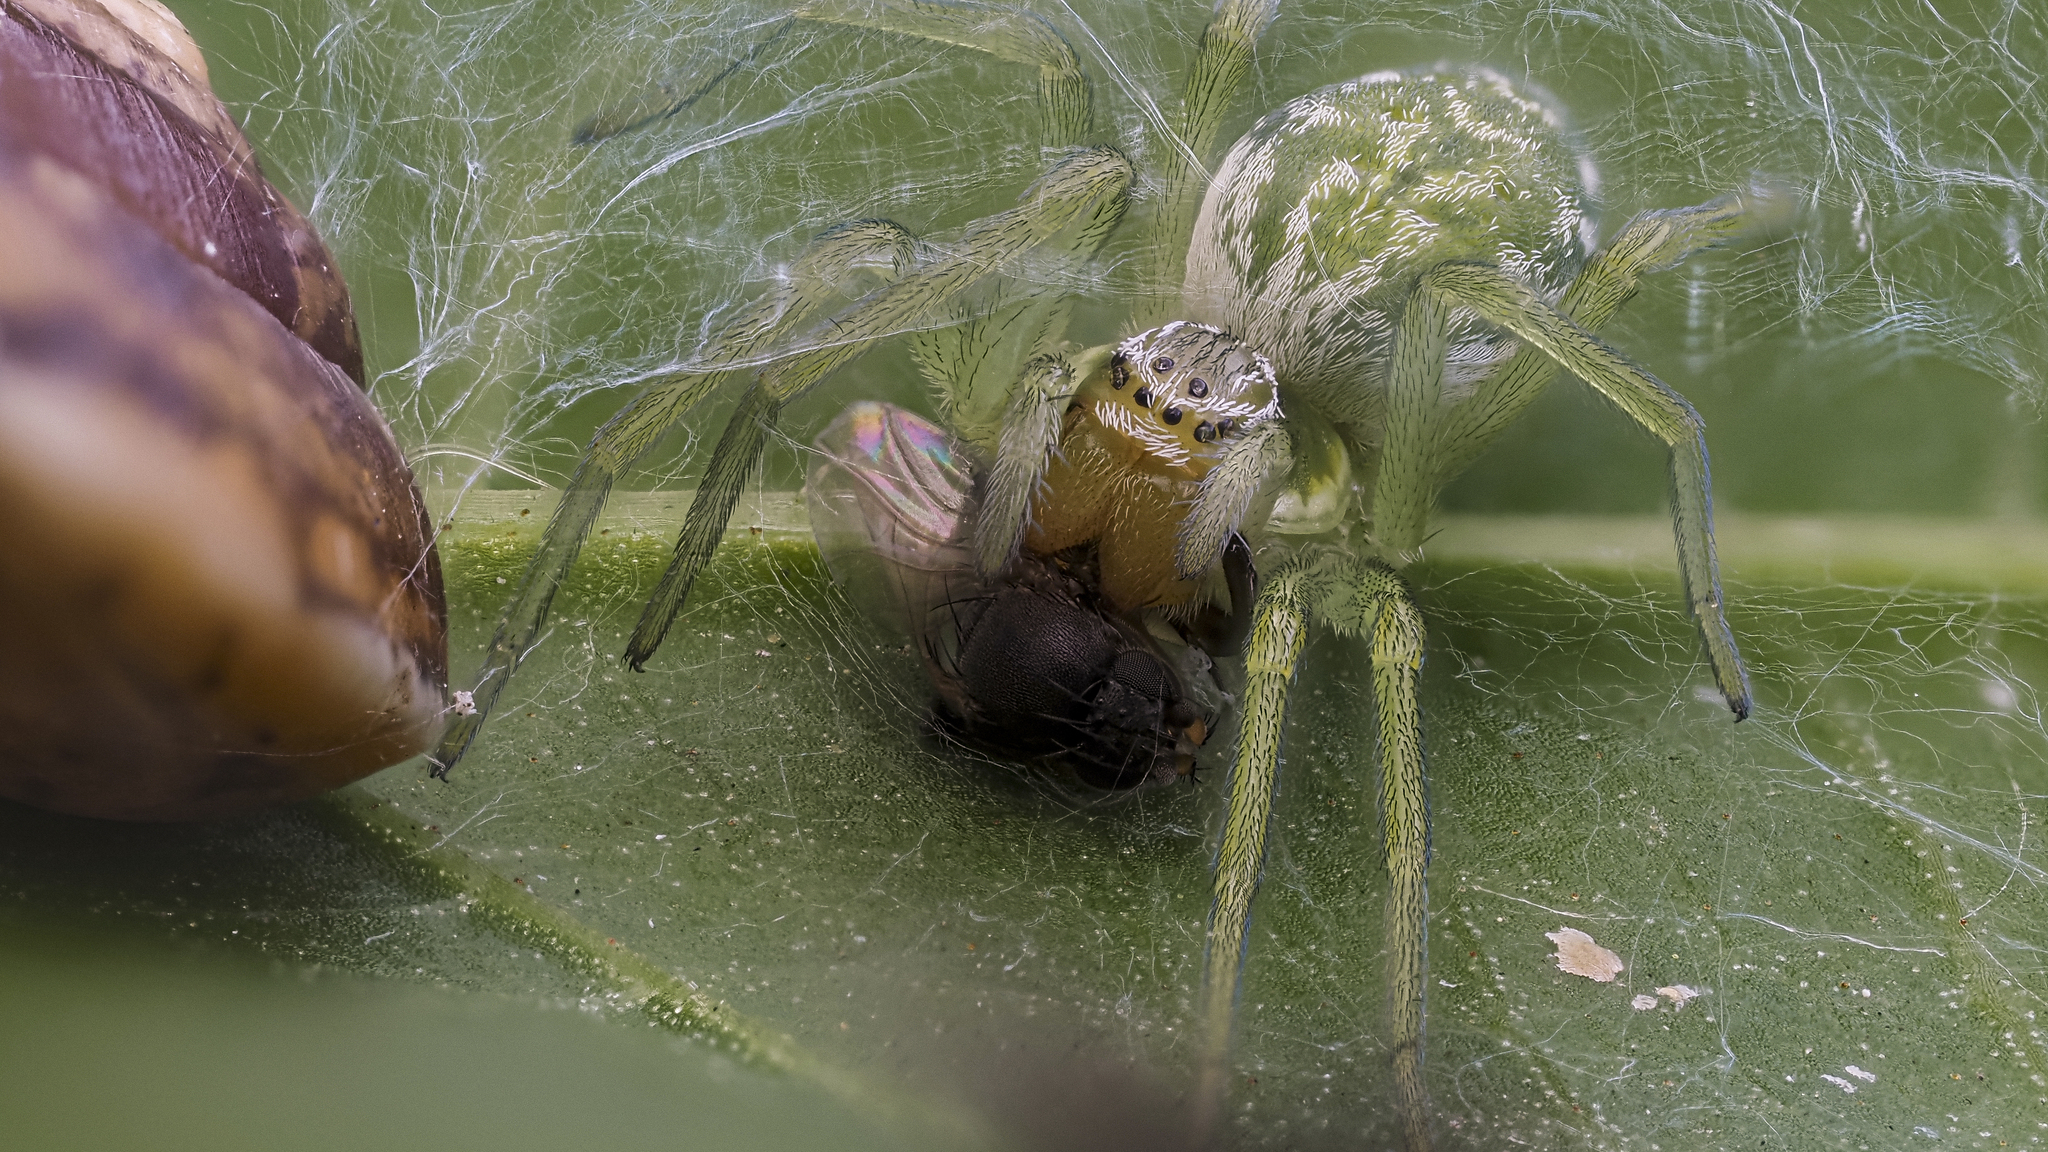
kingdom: Animalia
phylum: Arthropoda
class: Arachnida
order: Araneae
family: Dictynidae
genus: Nigma
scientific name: Nigma walckenaeri
